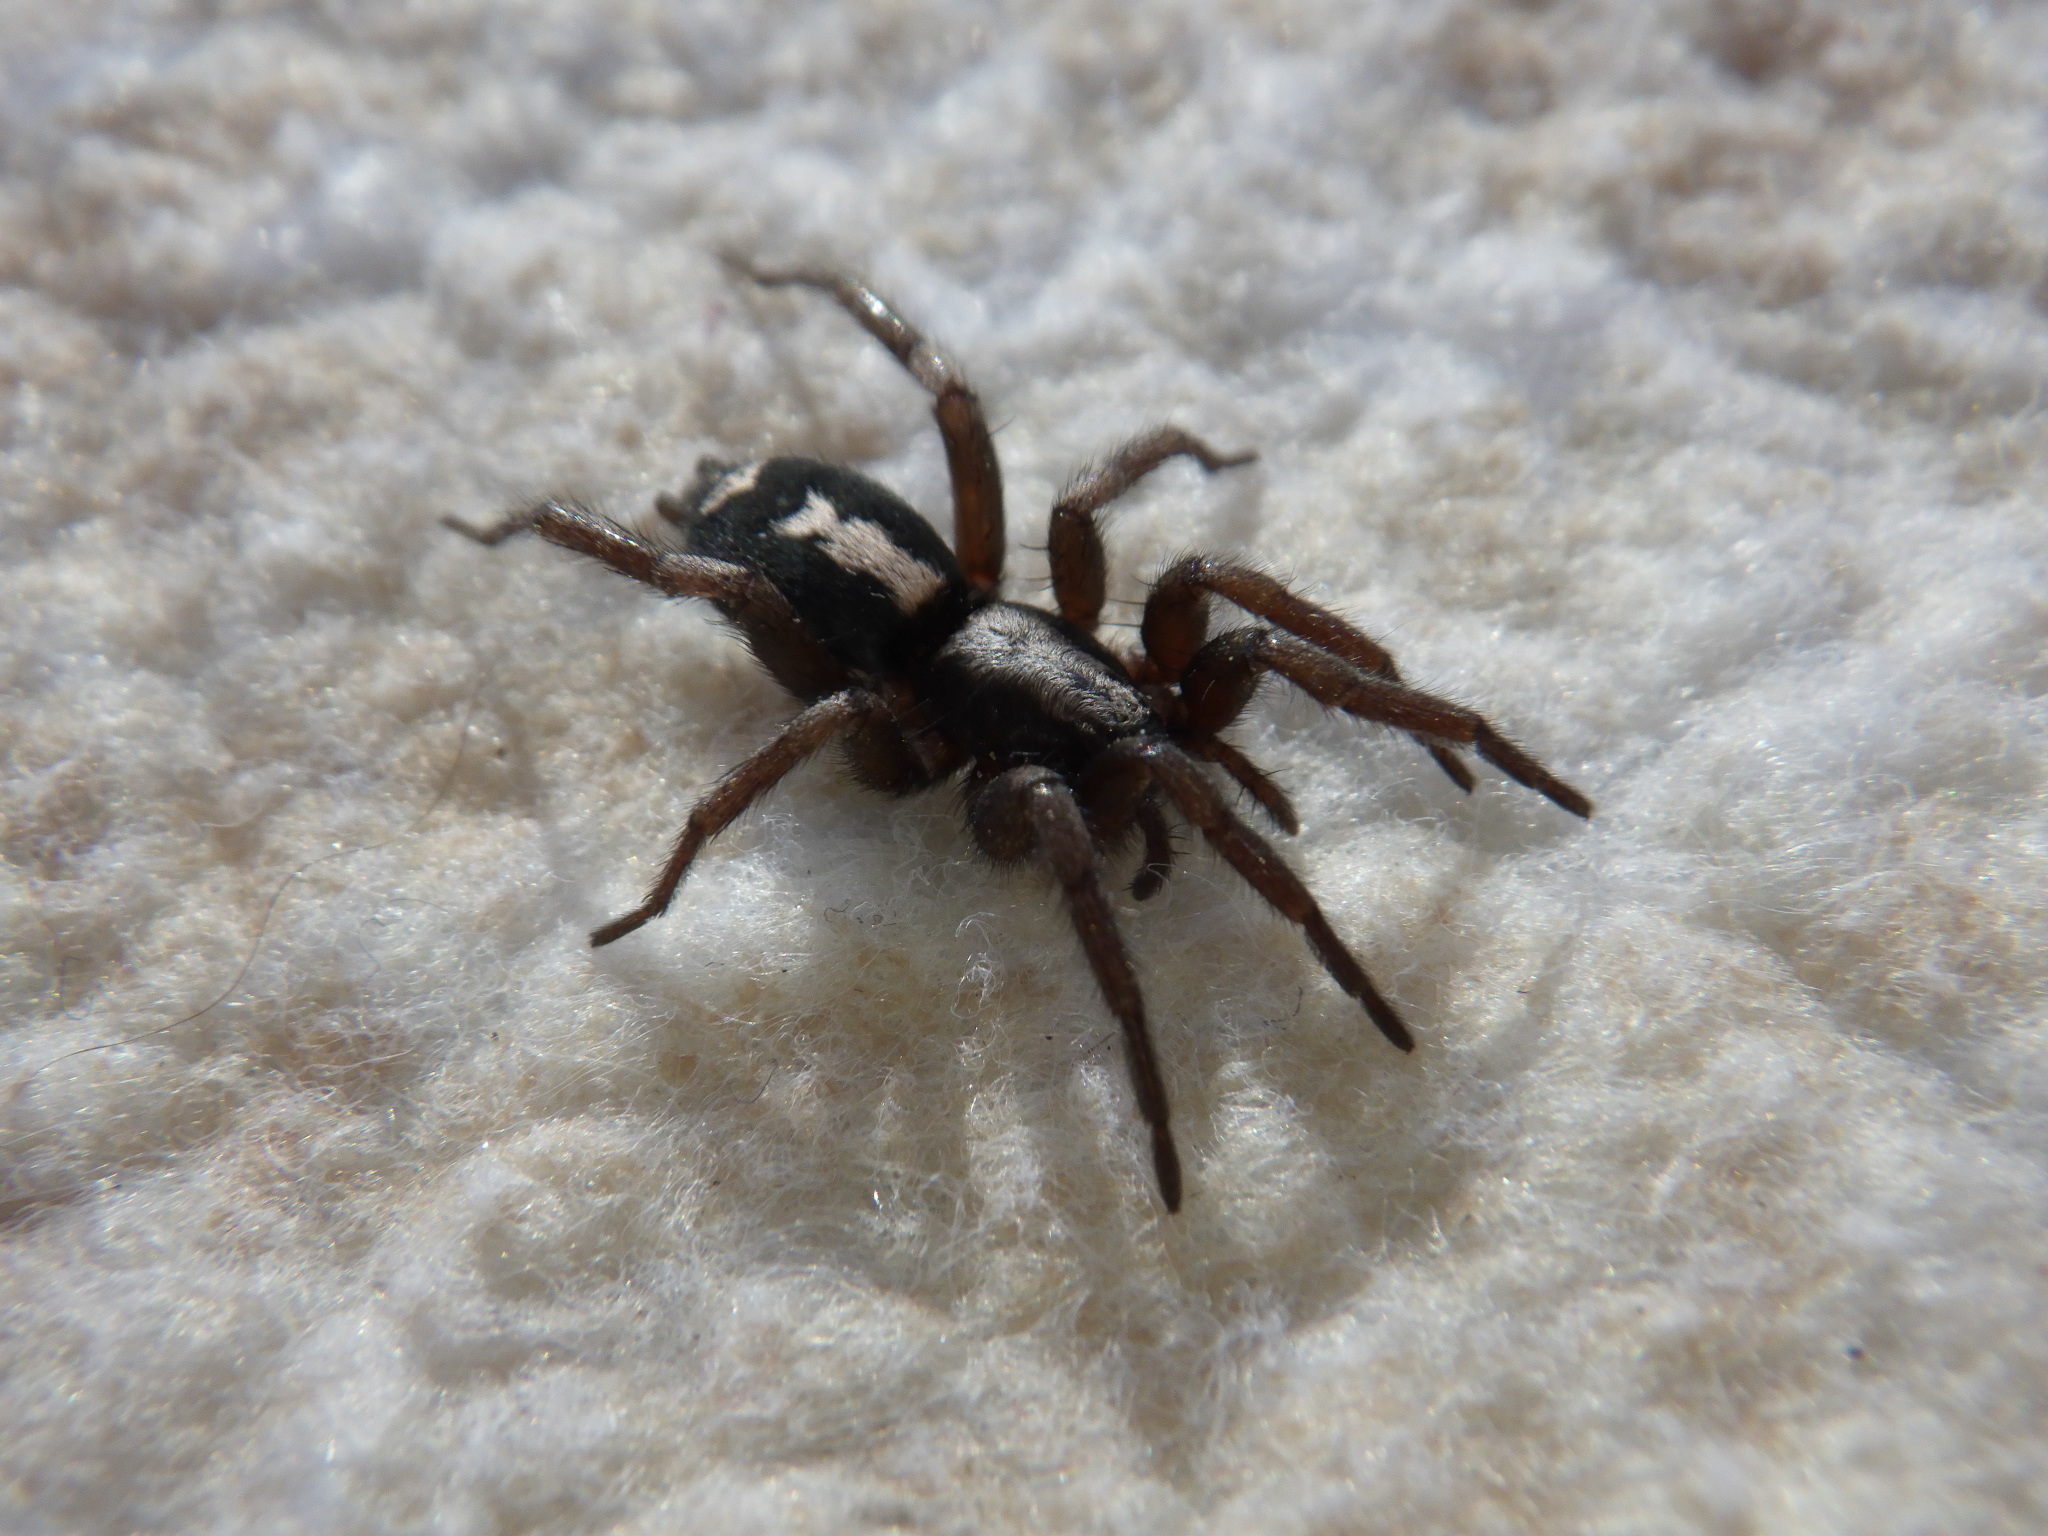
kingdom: Animalia
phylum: Arthropoda
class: Arachnida
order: Araneae
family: Gnaphosidae
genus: Herpyllus
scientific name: Herpyllus ecclesiasticus
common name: Eastern parson spider
